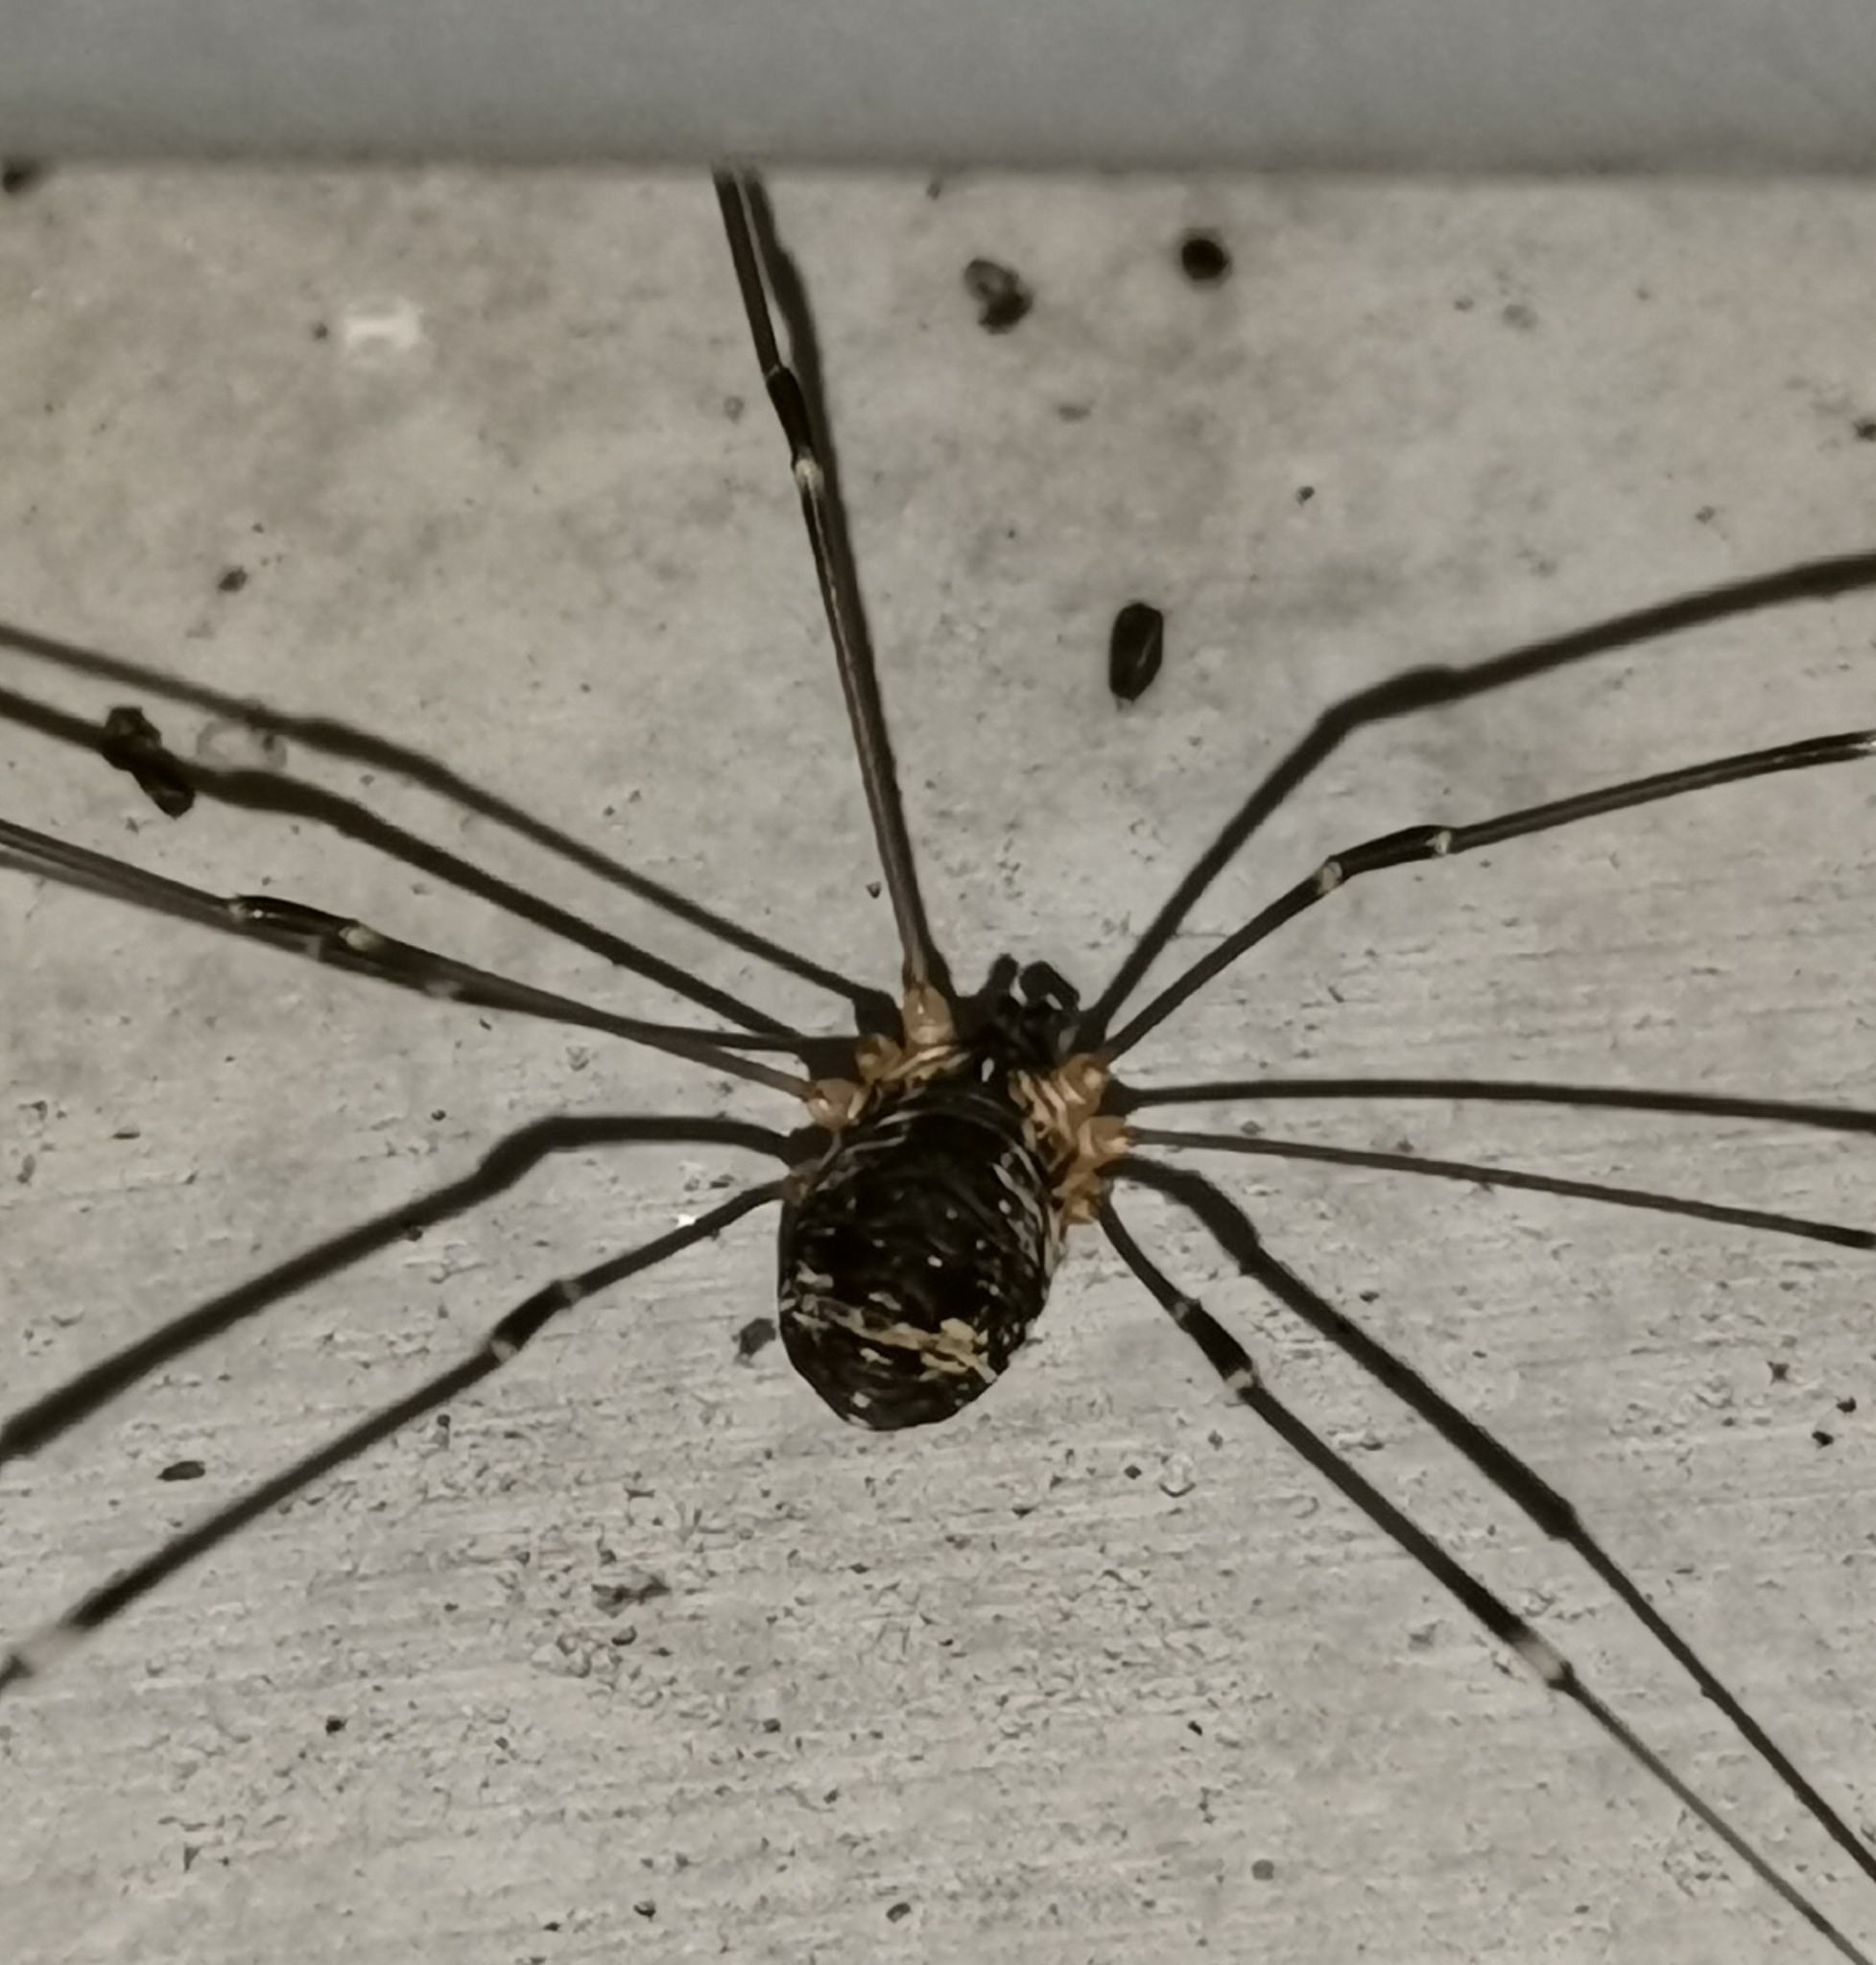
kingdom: Animalia
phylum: Arthropoda
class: Arachnida
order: Opiliones
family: Sclerosomatidae
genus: Leiobunum
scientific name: Leiobunum gracile
